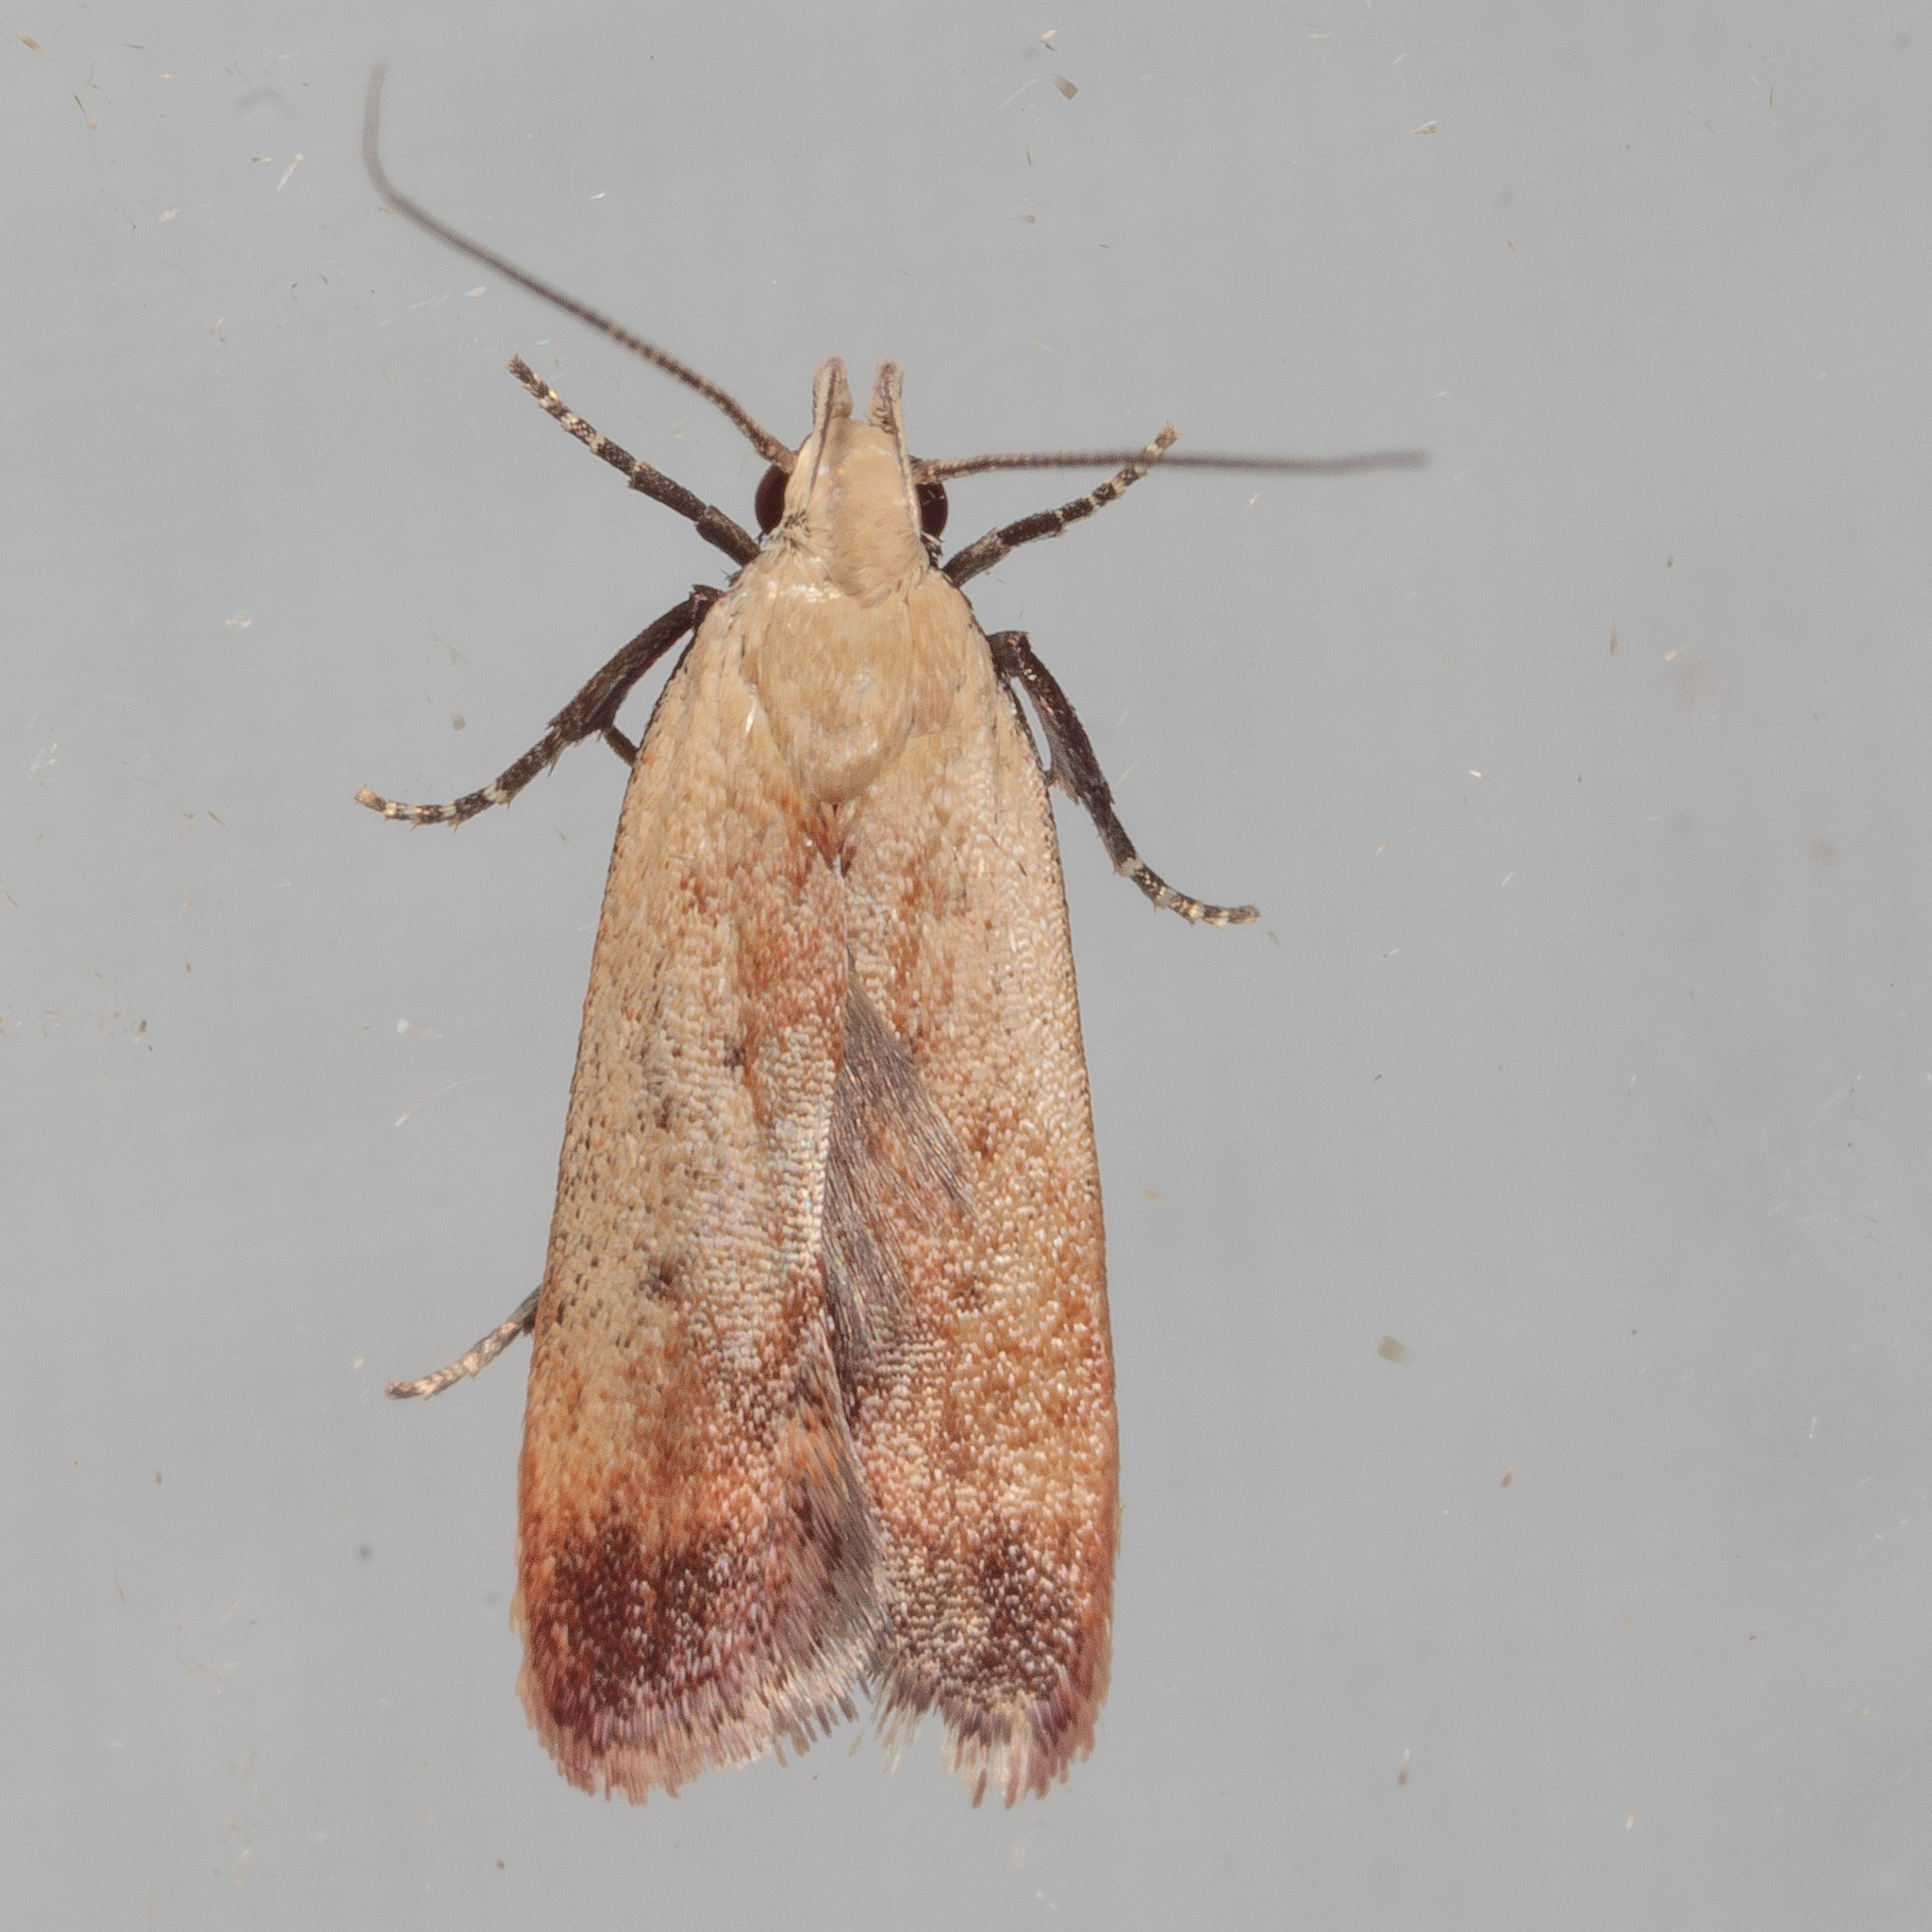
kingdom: Animalia
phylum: Arthropoda
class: Insecta
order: Lepidoptera
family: Gelechiidae
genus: Anacampsis
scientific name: Anacampsis fullonella
